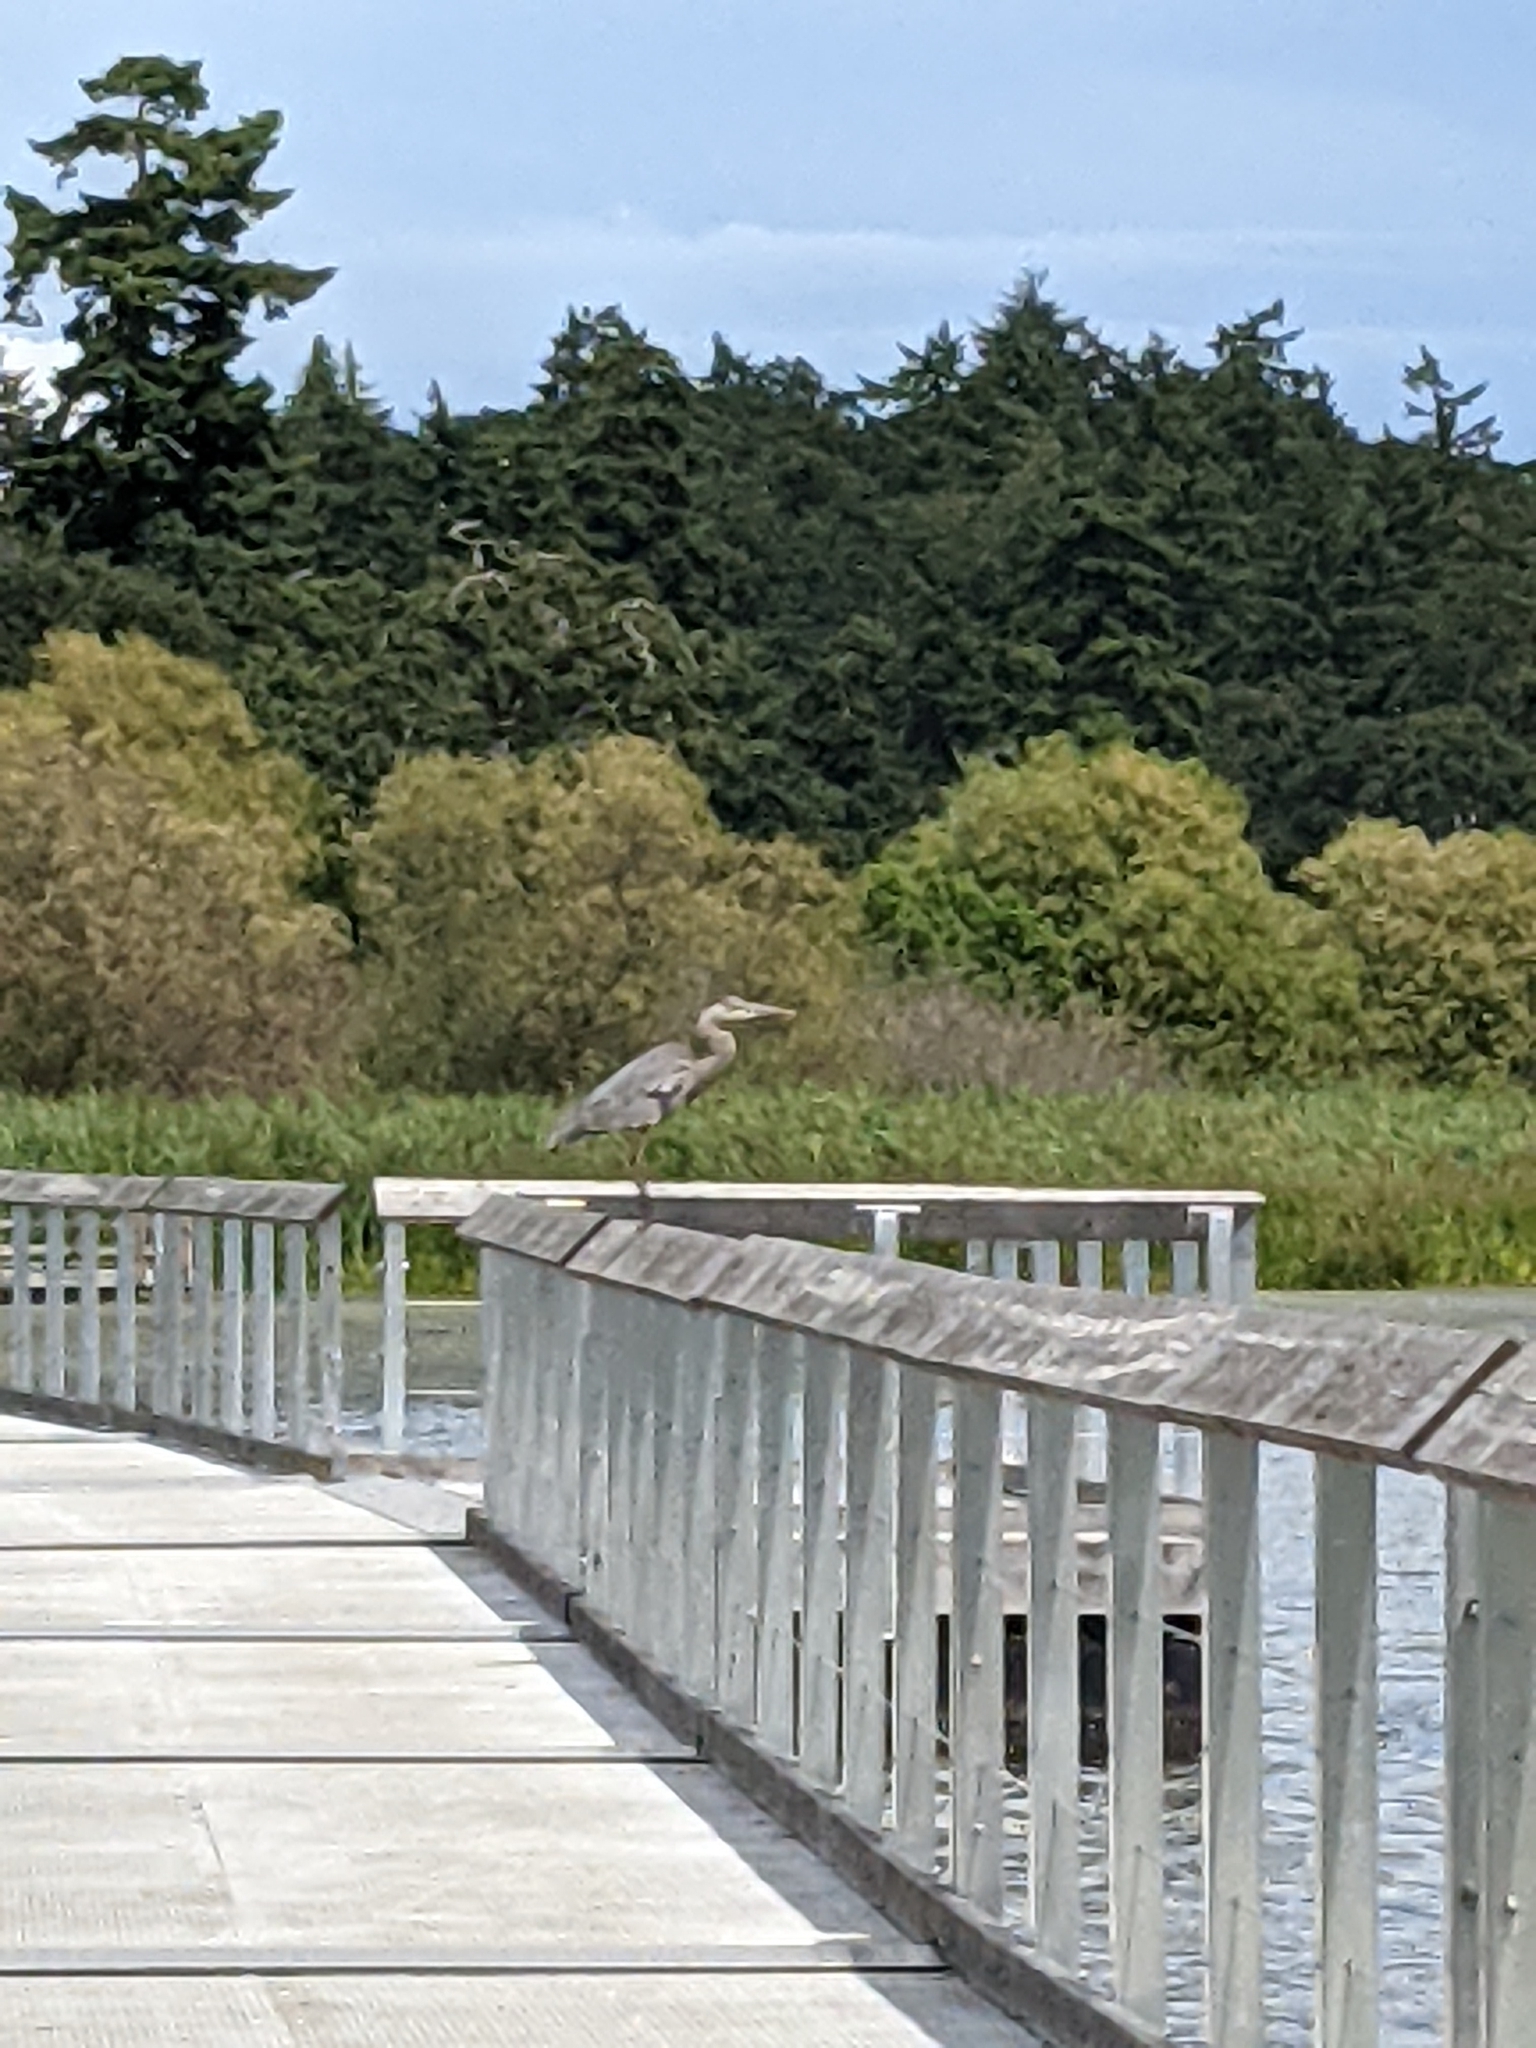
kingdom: Animalia
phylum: Chordata
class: Aves
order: Pelecaniformes
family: Ardeidae
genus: Ardea
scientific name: Ardea herodias
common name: Great blue heron
